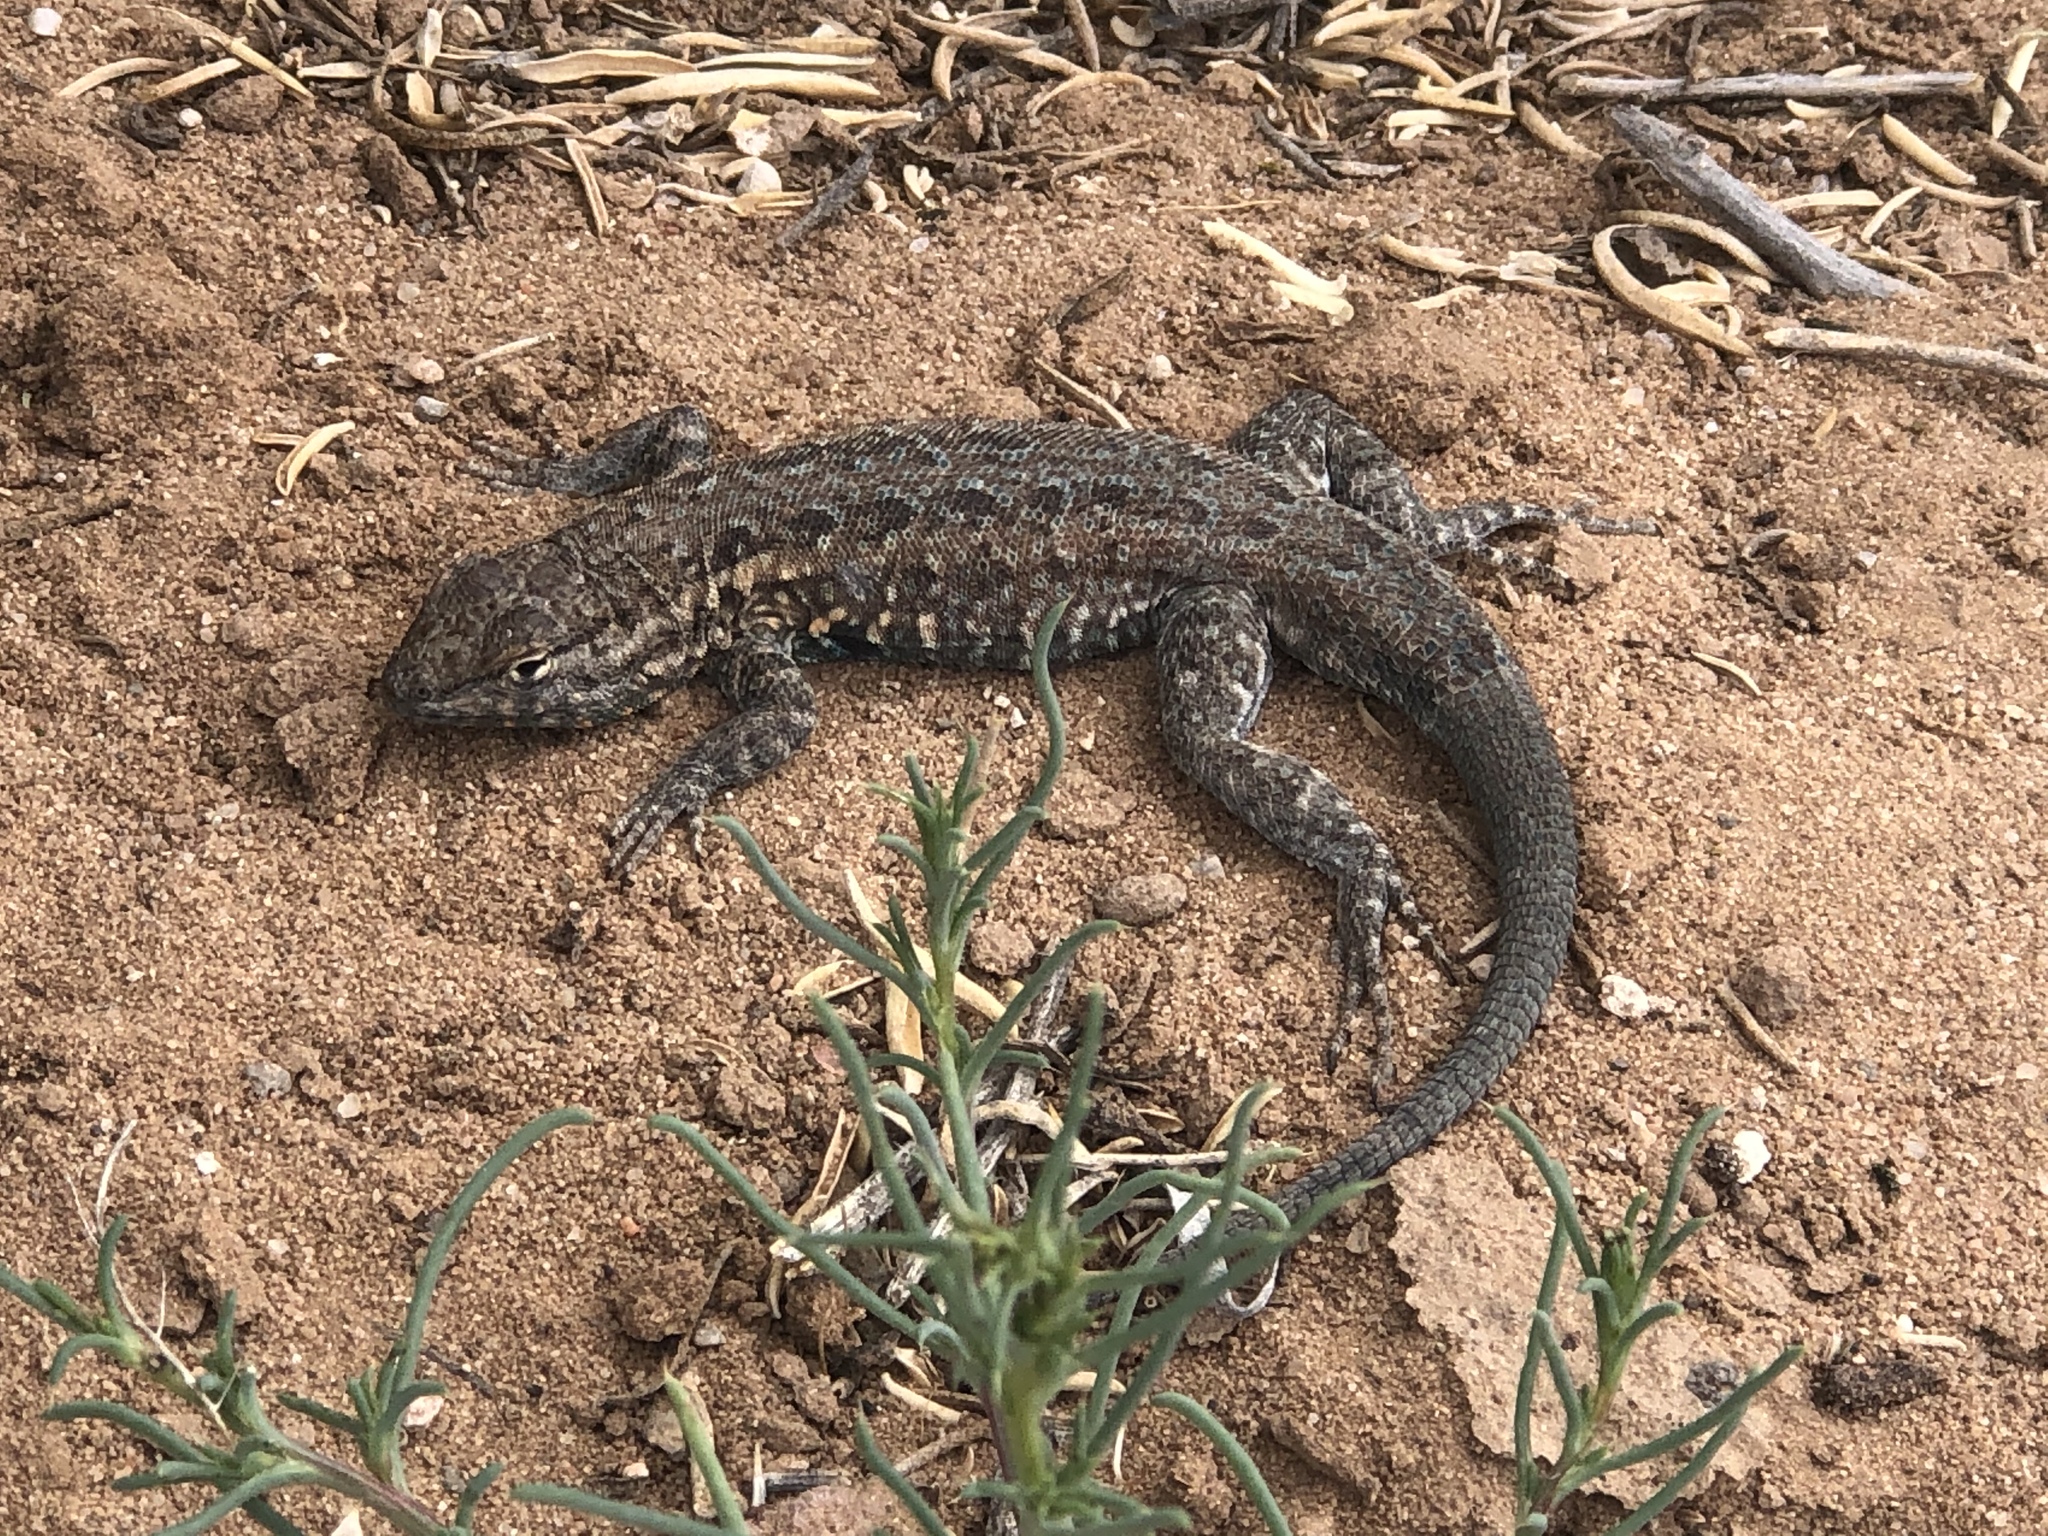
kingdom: Animalia
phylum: Chordata
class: Squamata
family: Phrynosomatidae
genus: Uta
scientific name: Uta stansburiana
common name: Side-blotched lizard
